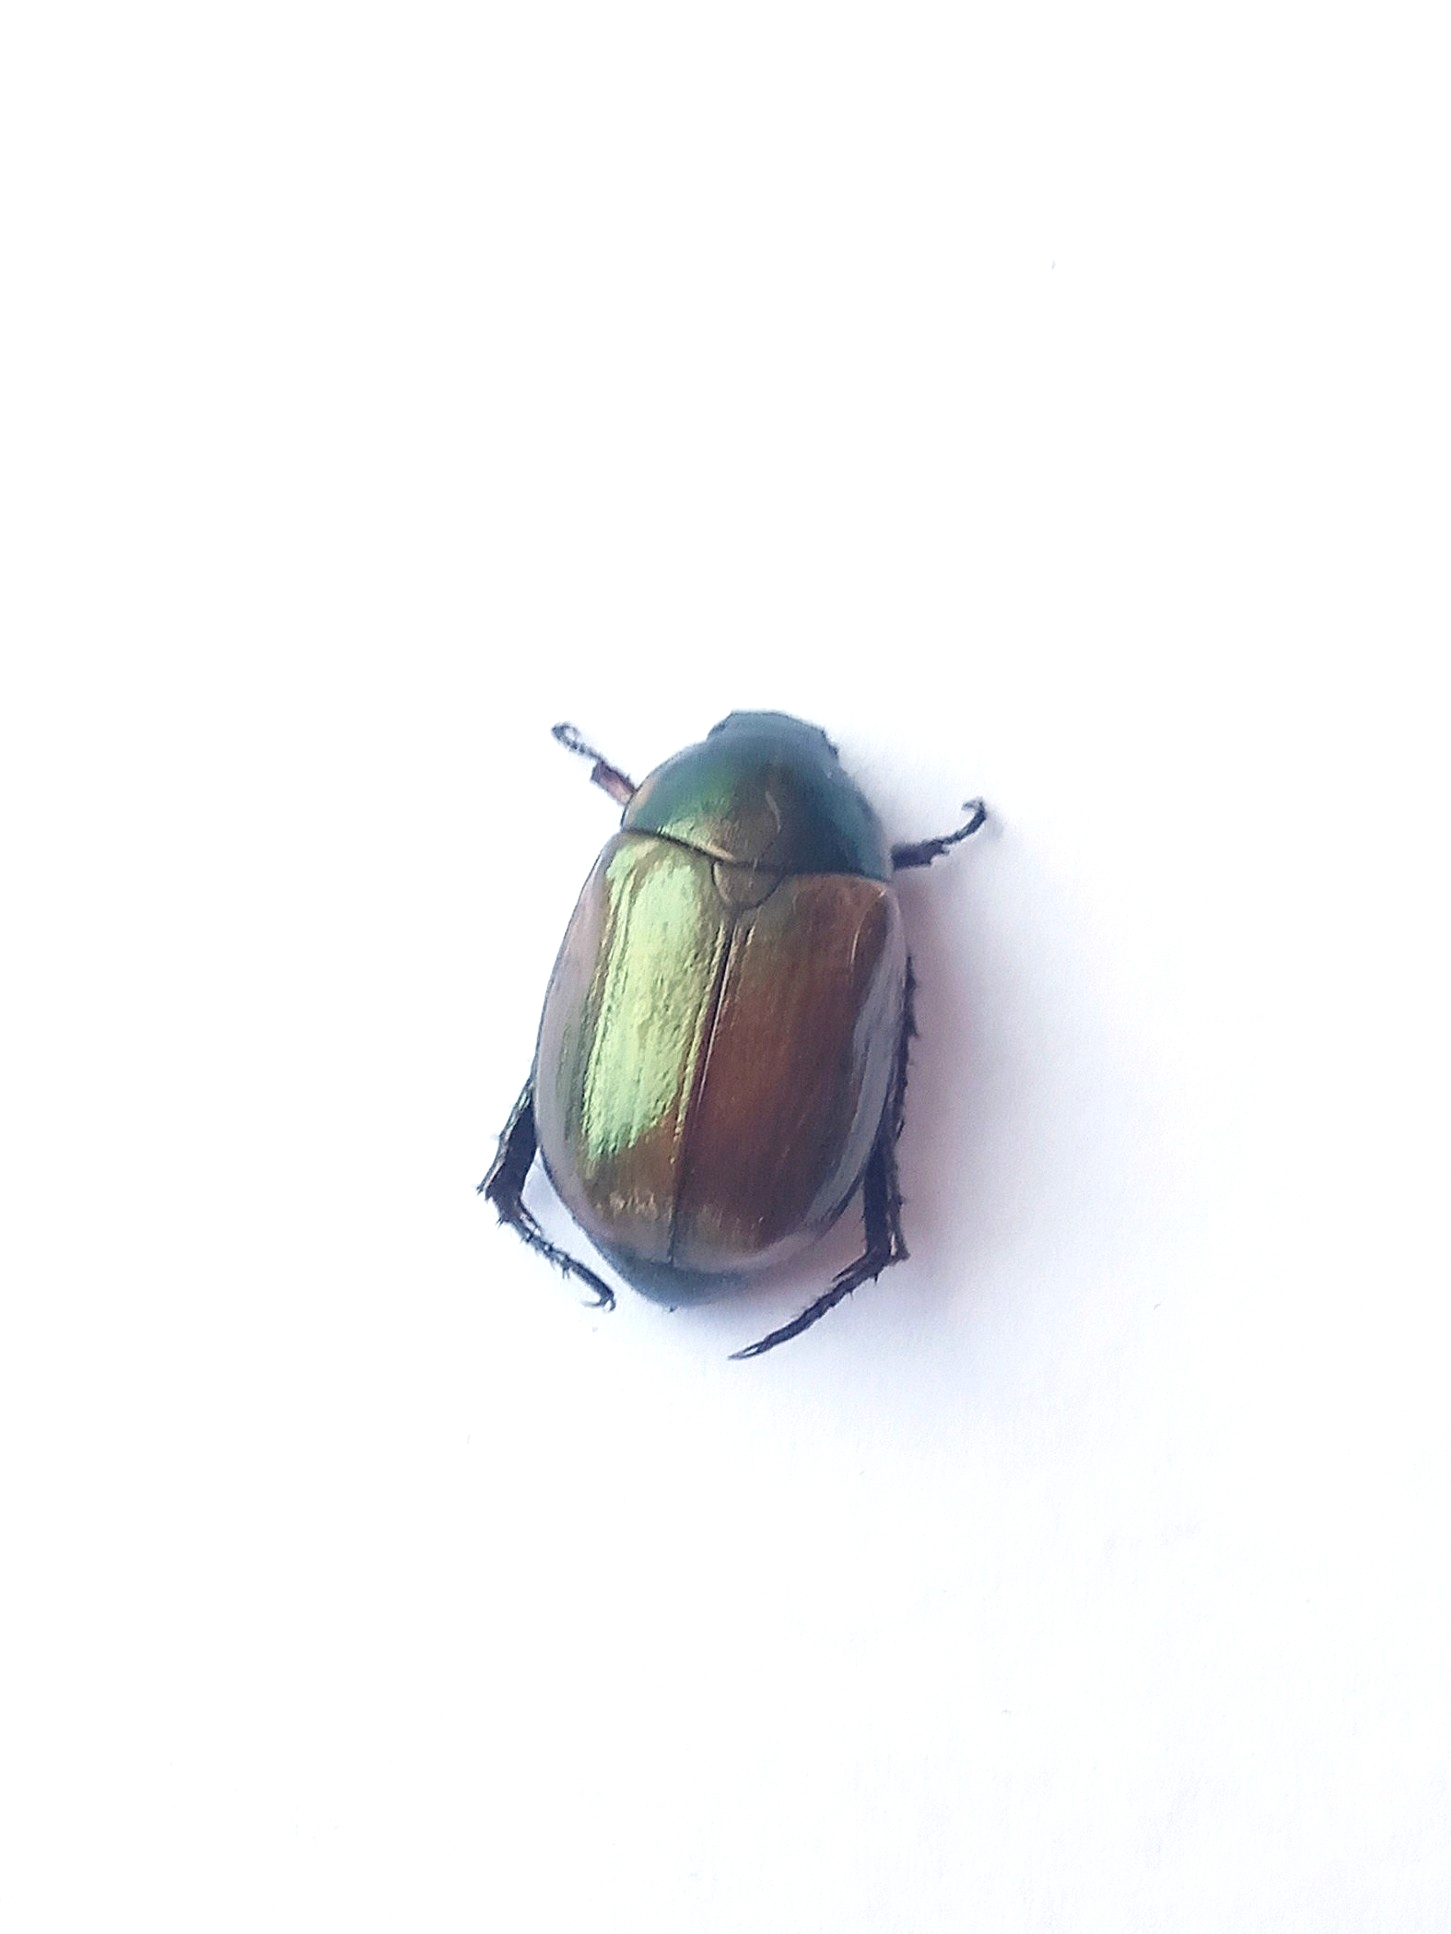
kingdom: Animalia
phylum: Arthropoda
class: Insecta
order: Coleoptera
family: Scarabaeidae
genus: Anomala
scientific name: Anomala dubia
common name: Dune chafer
